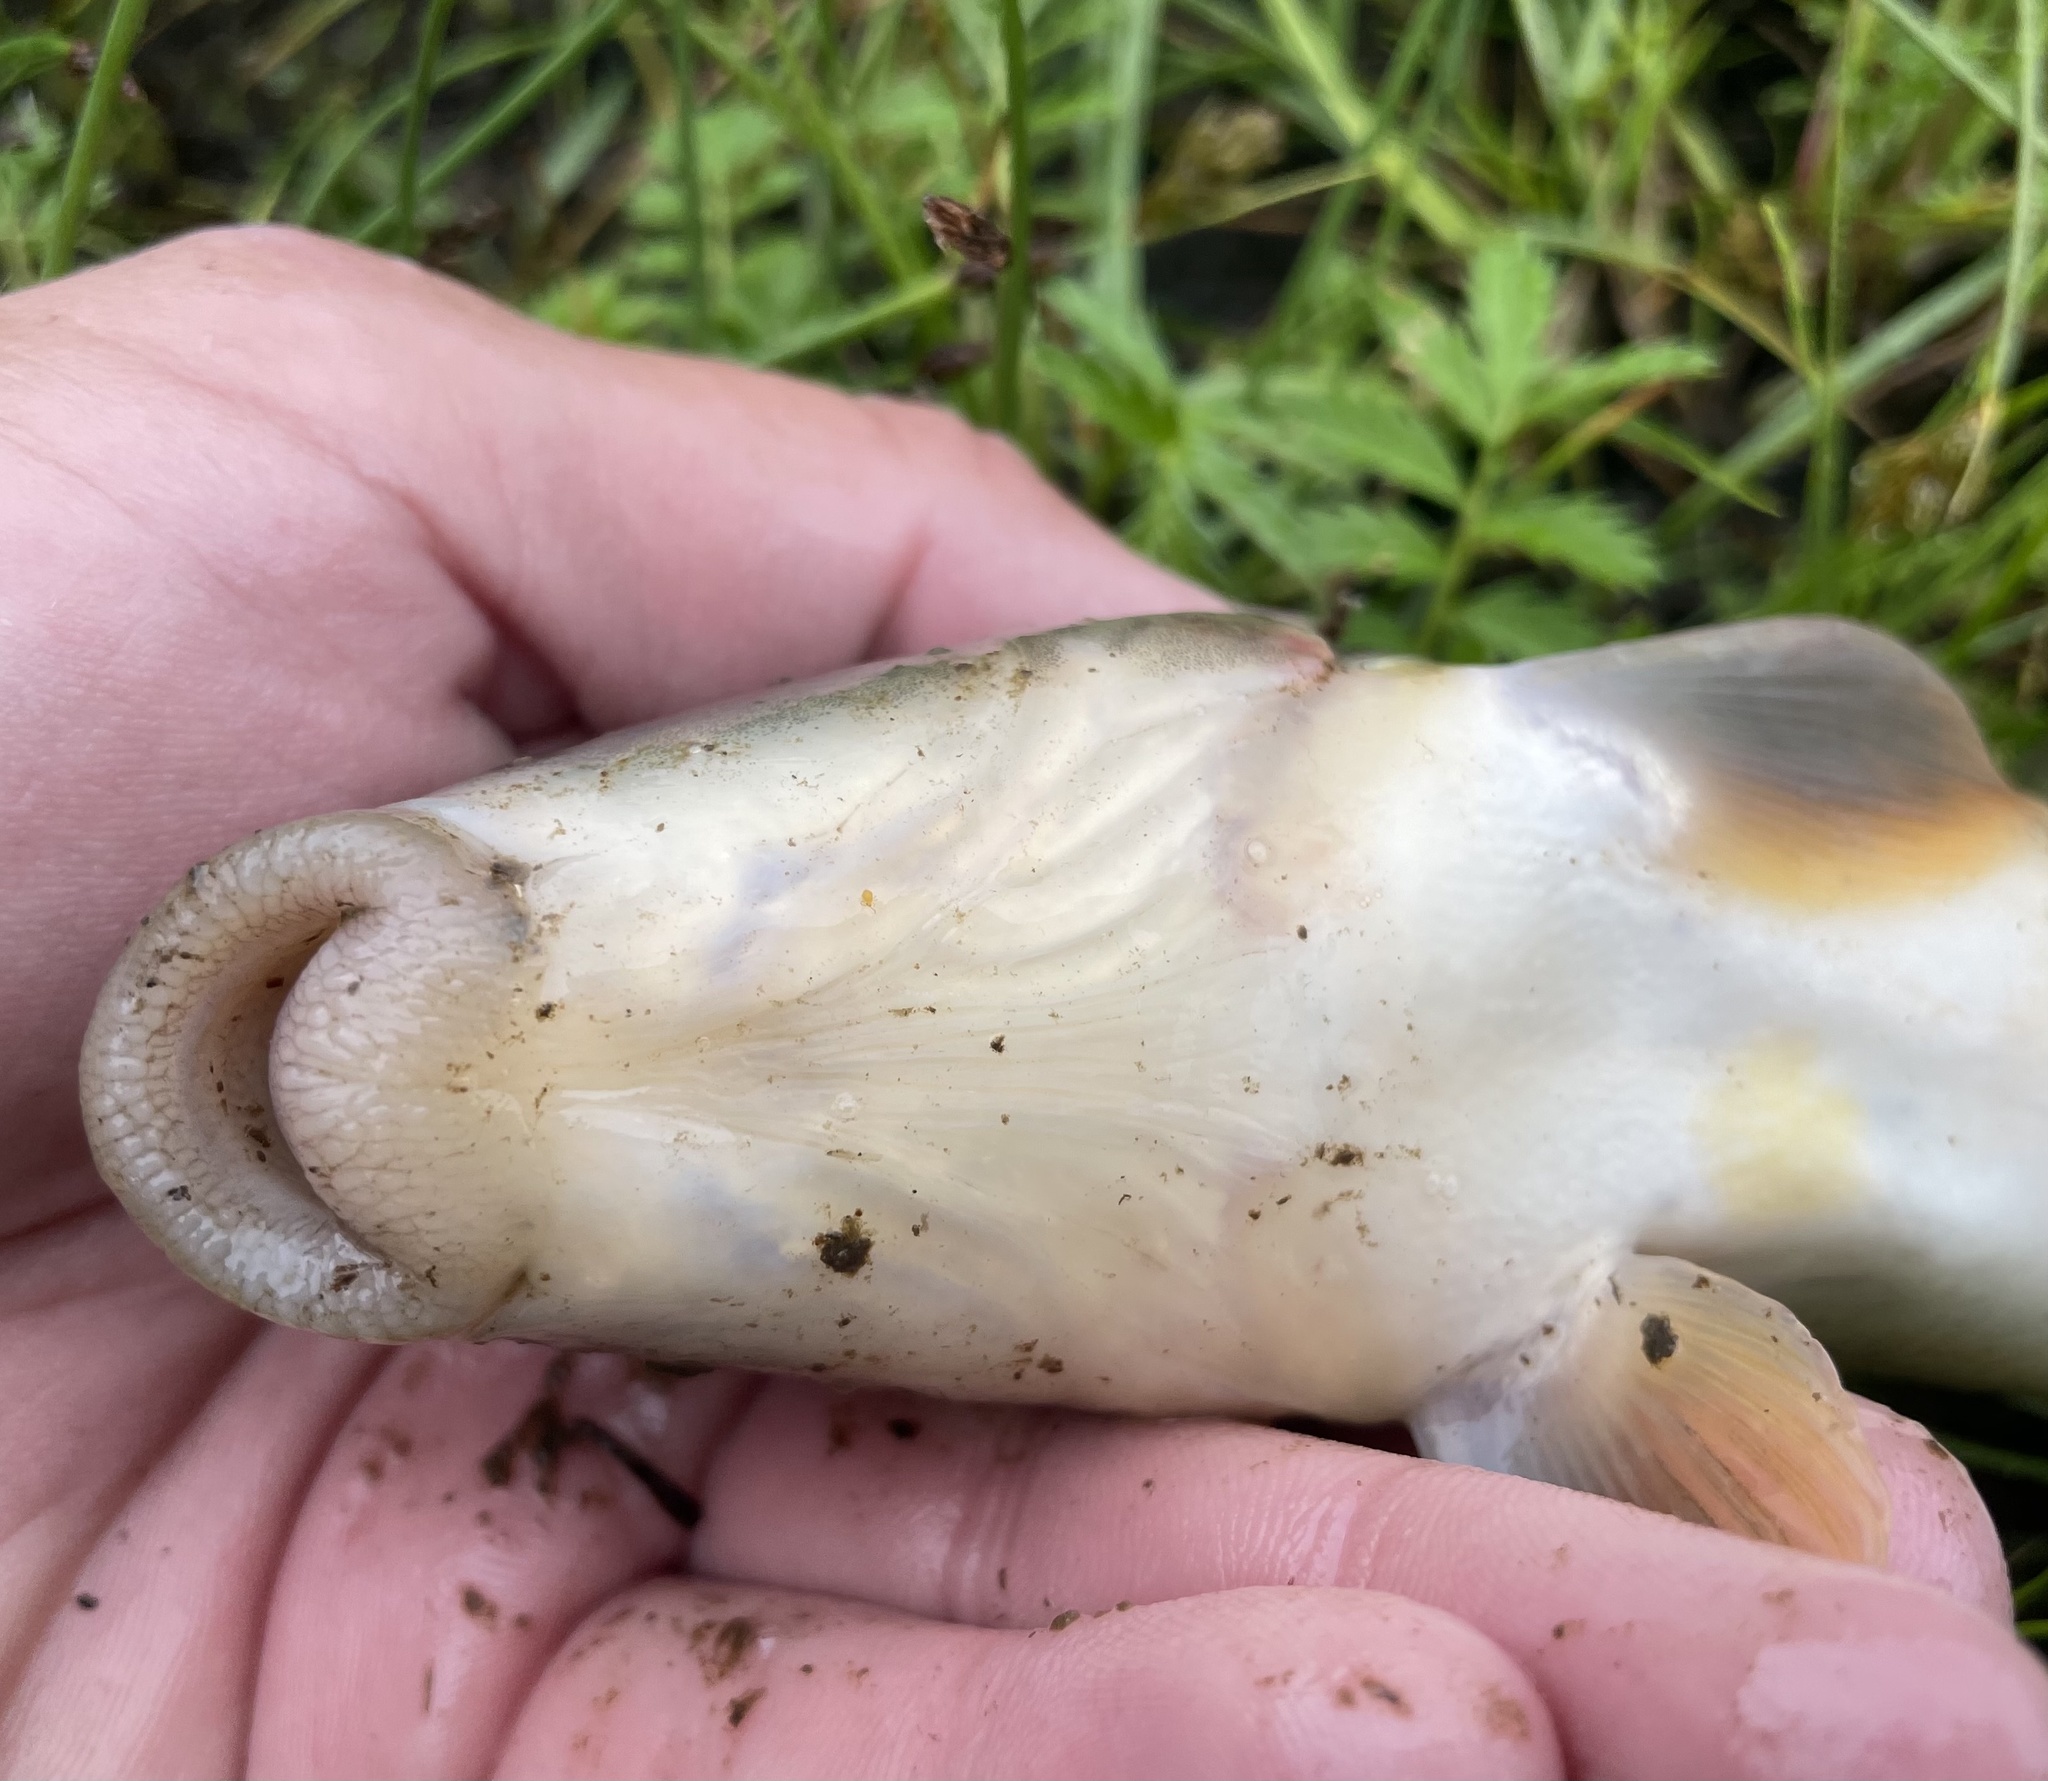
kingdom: Animalia
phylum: Chordata
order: Cypriniformes
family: Catostomidae
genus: Catostomus
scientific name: Catostomus commersonii
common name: White sucker
